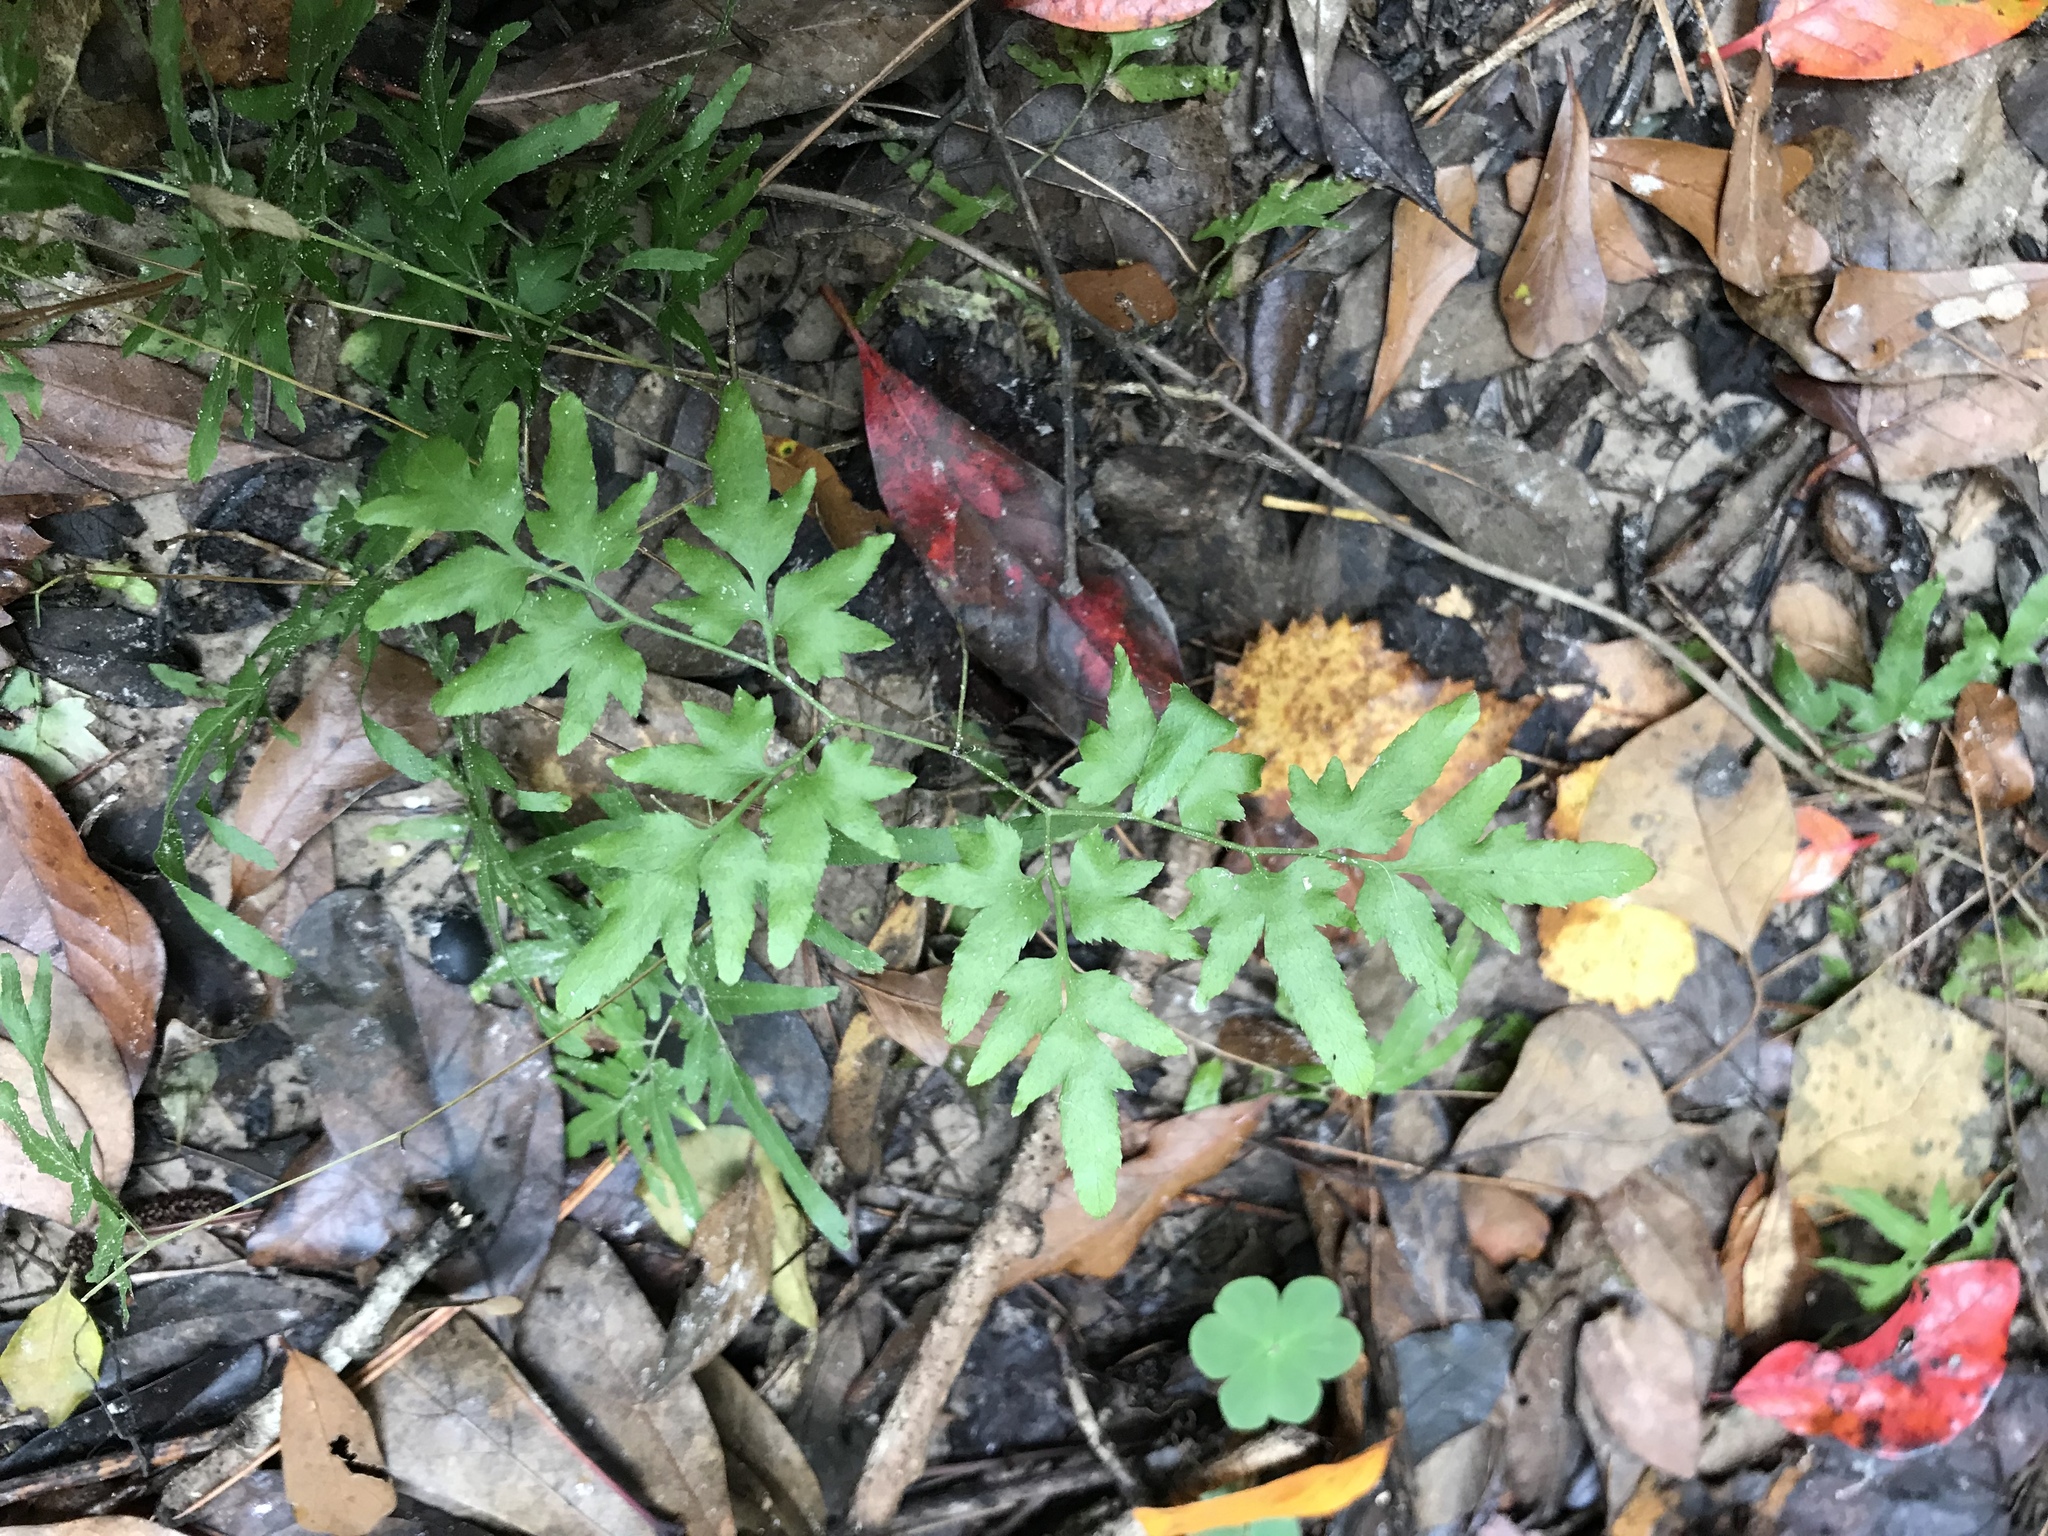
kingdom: Plantae
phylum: Tracheophyta
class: Polypodiopsida
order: Schizaeales
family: Lygodiaceae
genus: Lygodium
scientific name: Lygodium japonicum
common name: Japanese climbing fern
